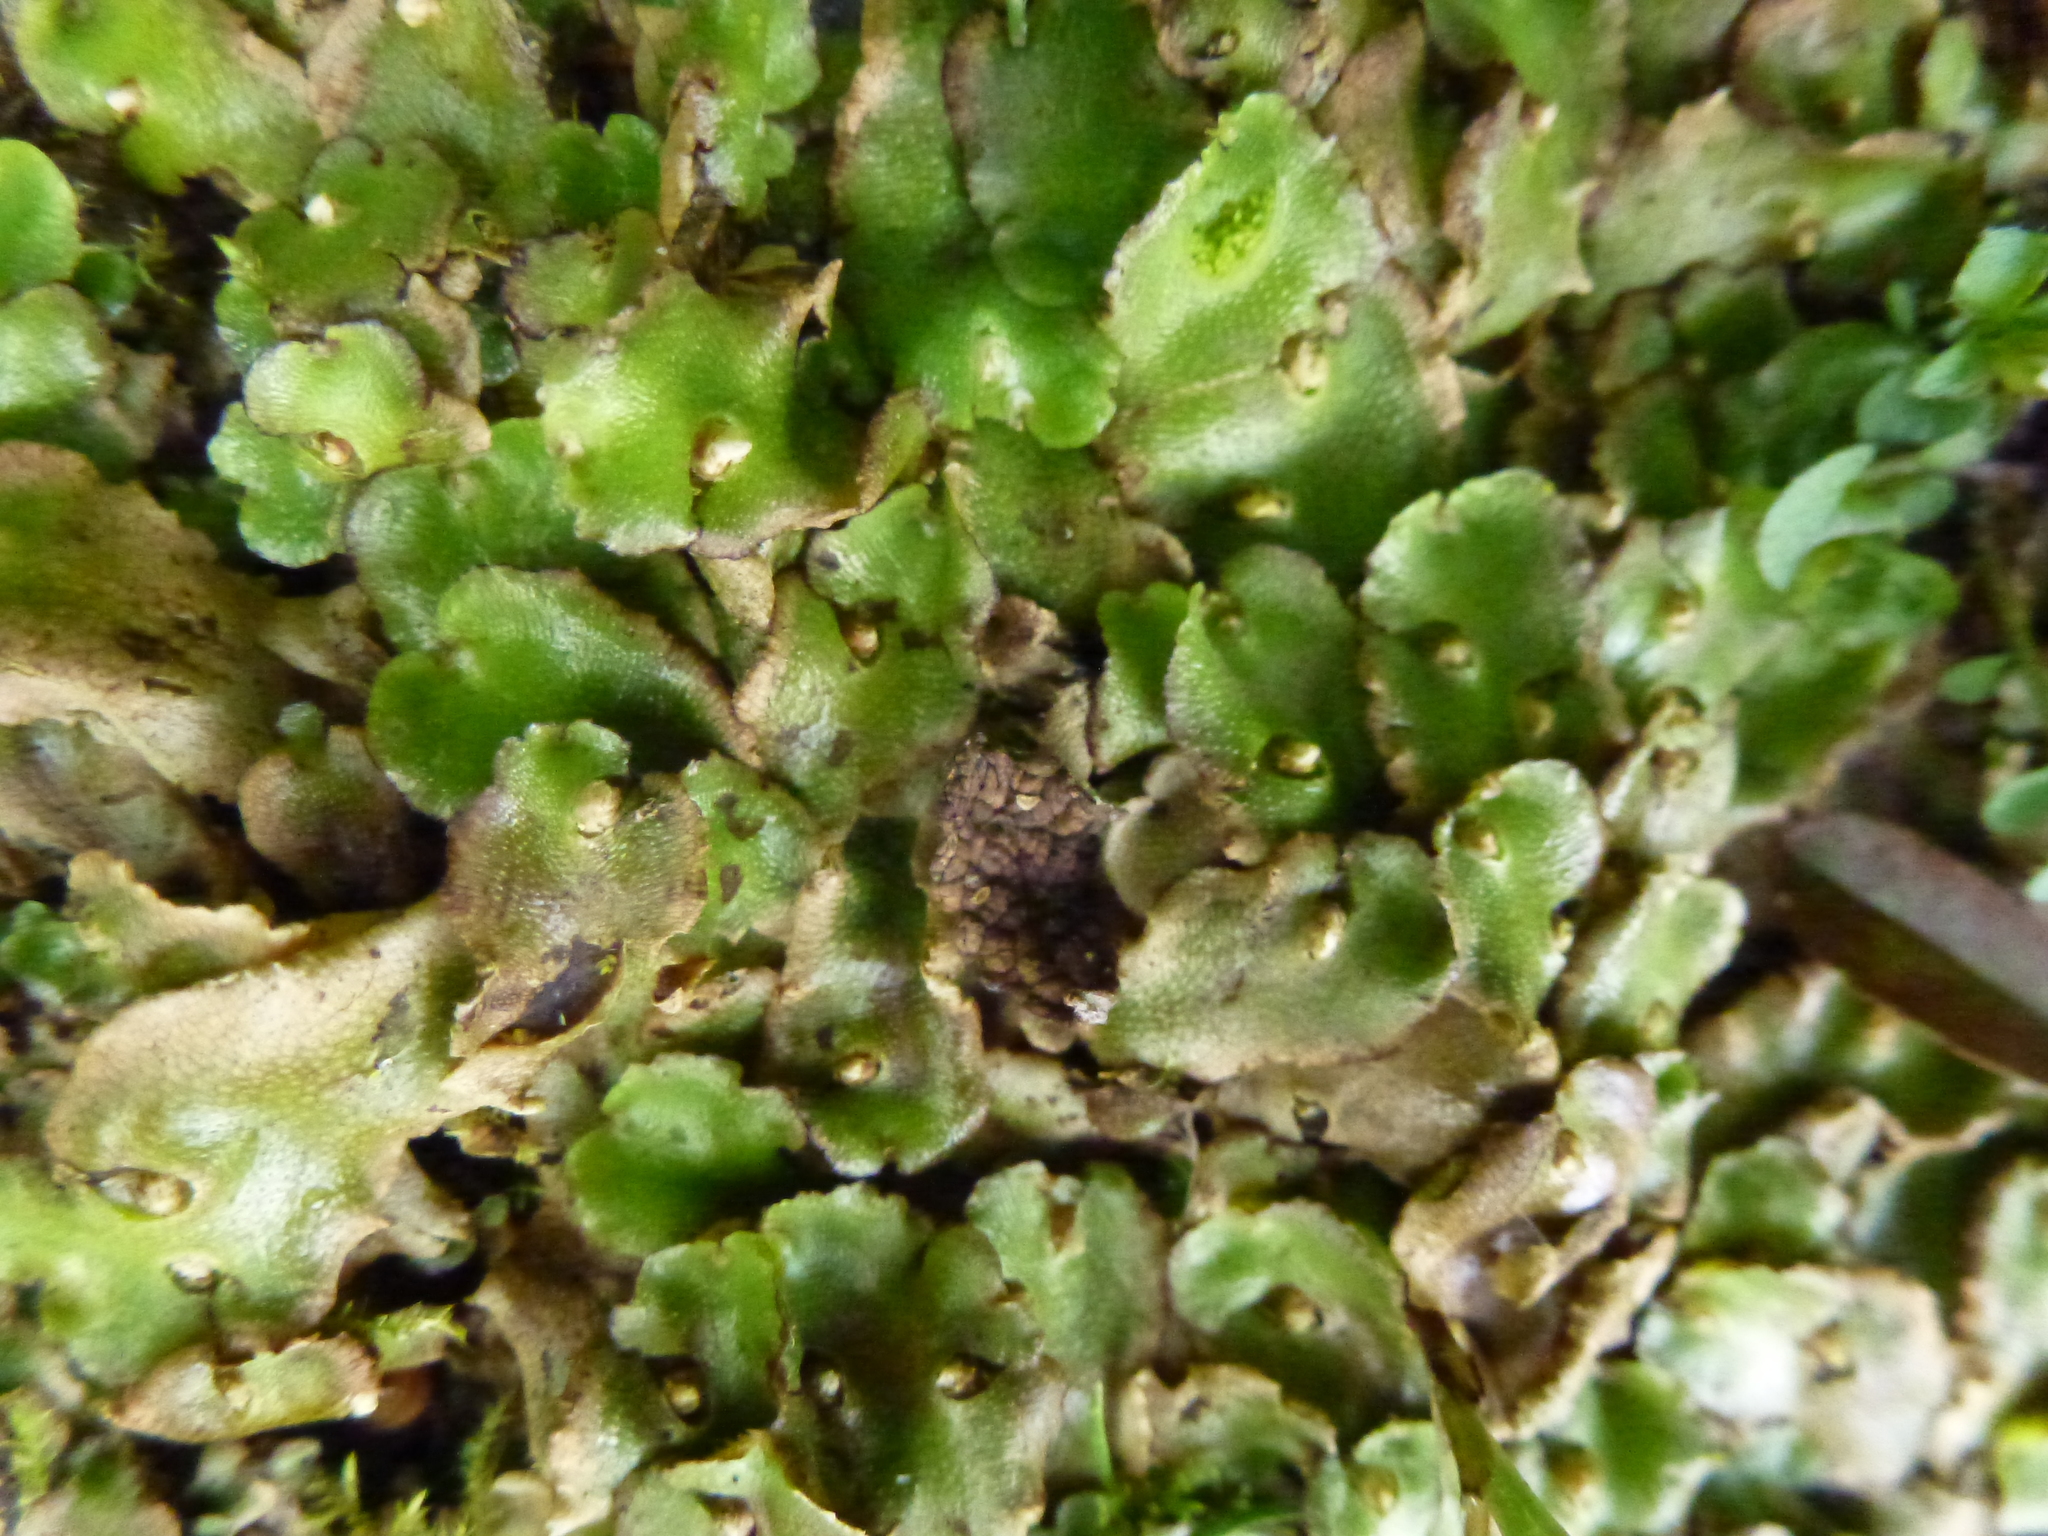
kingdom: Plantae
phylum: Marchantiophyta
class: Marchantiopsida
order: Lunulariales
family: Lunulariaceae
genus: Lunularia
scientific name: Lunularia cruciata
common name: Crescent-cup liverwort
